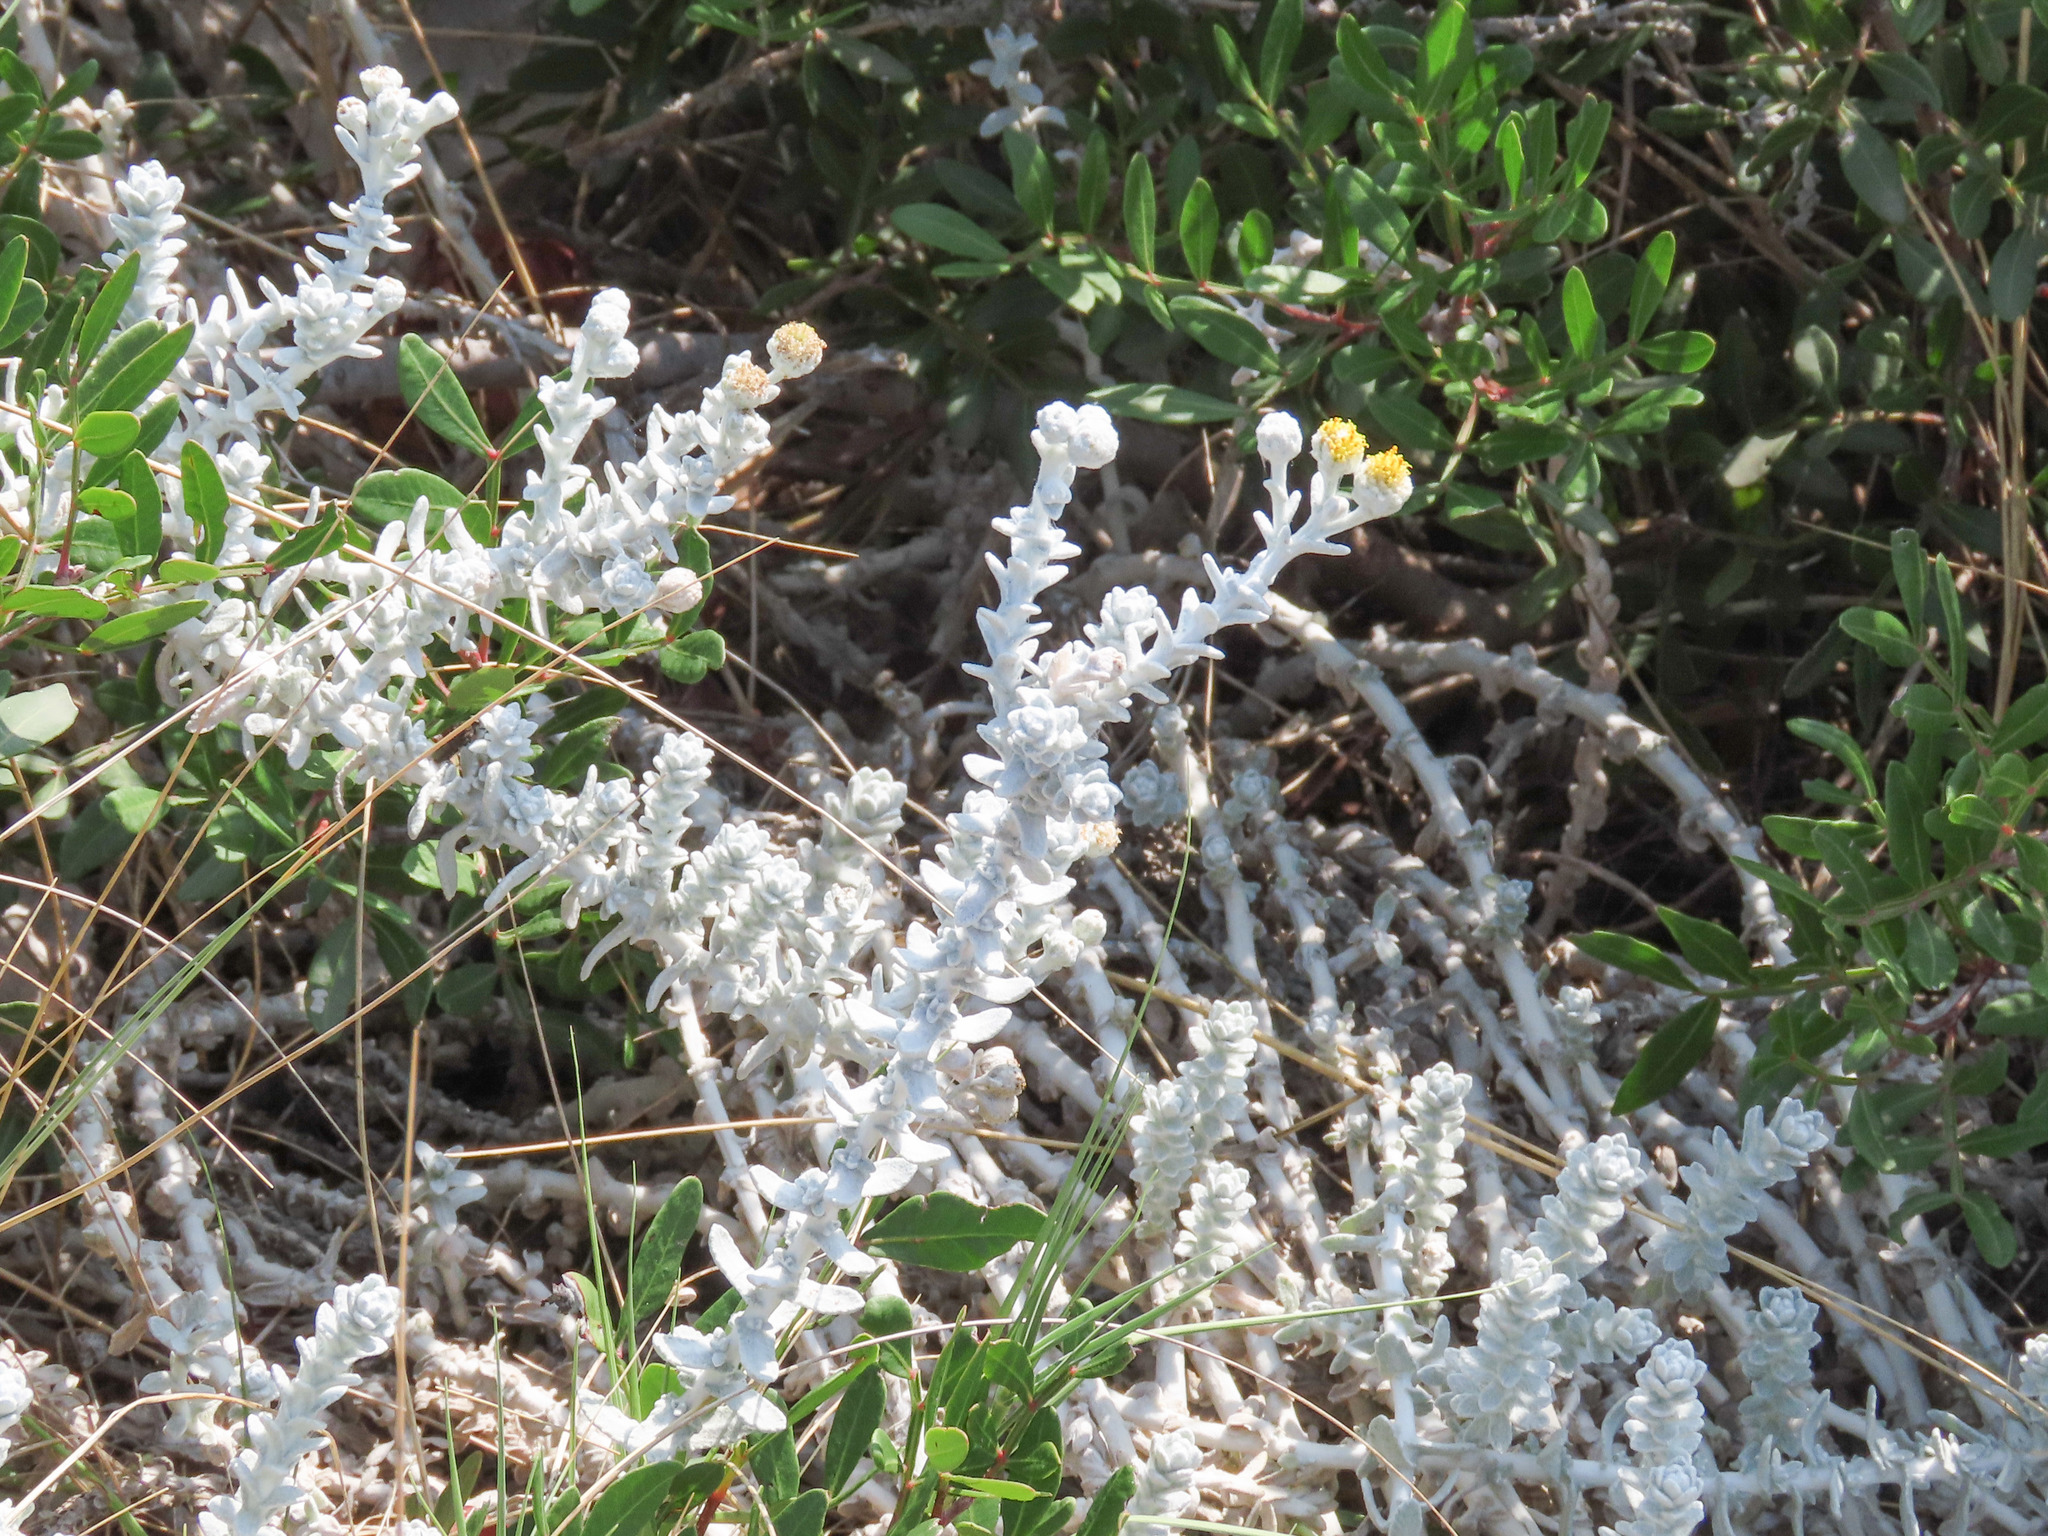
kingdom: Plantae
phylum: Tracheophyta
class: Magnoliopsida
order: Asterales
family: Asteraceae
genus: Achillea
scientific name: Achillea maritima
